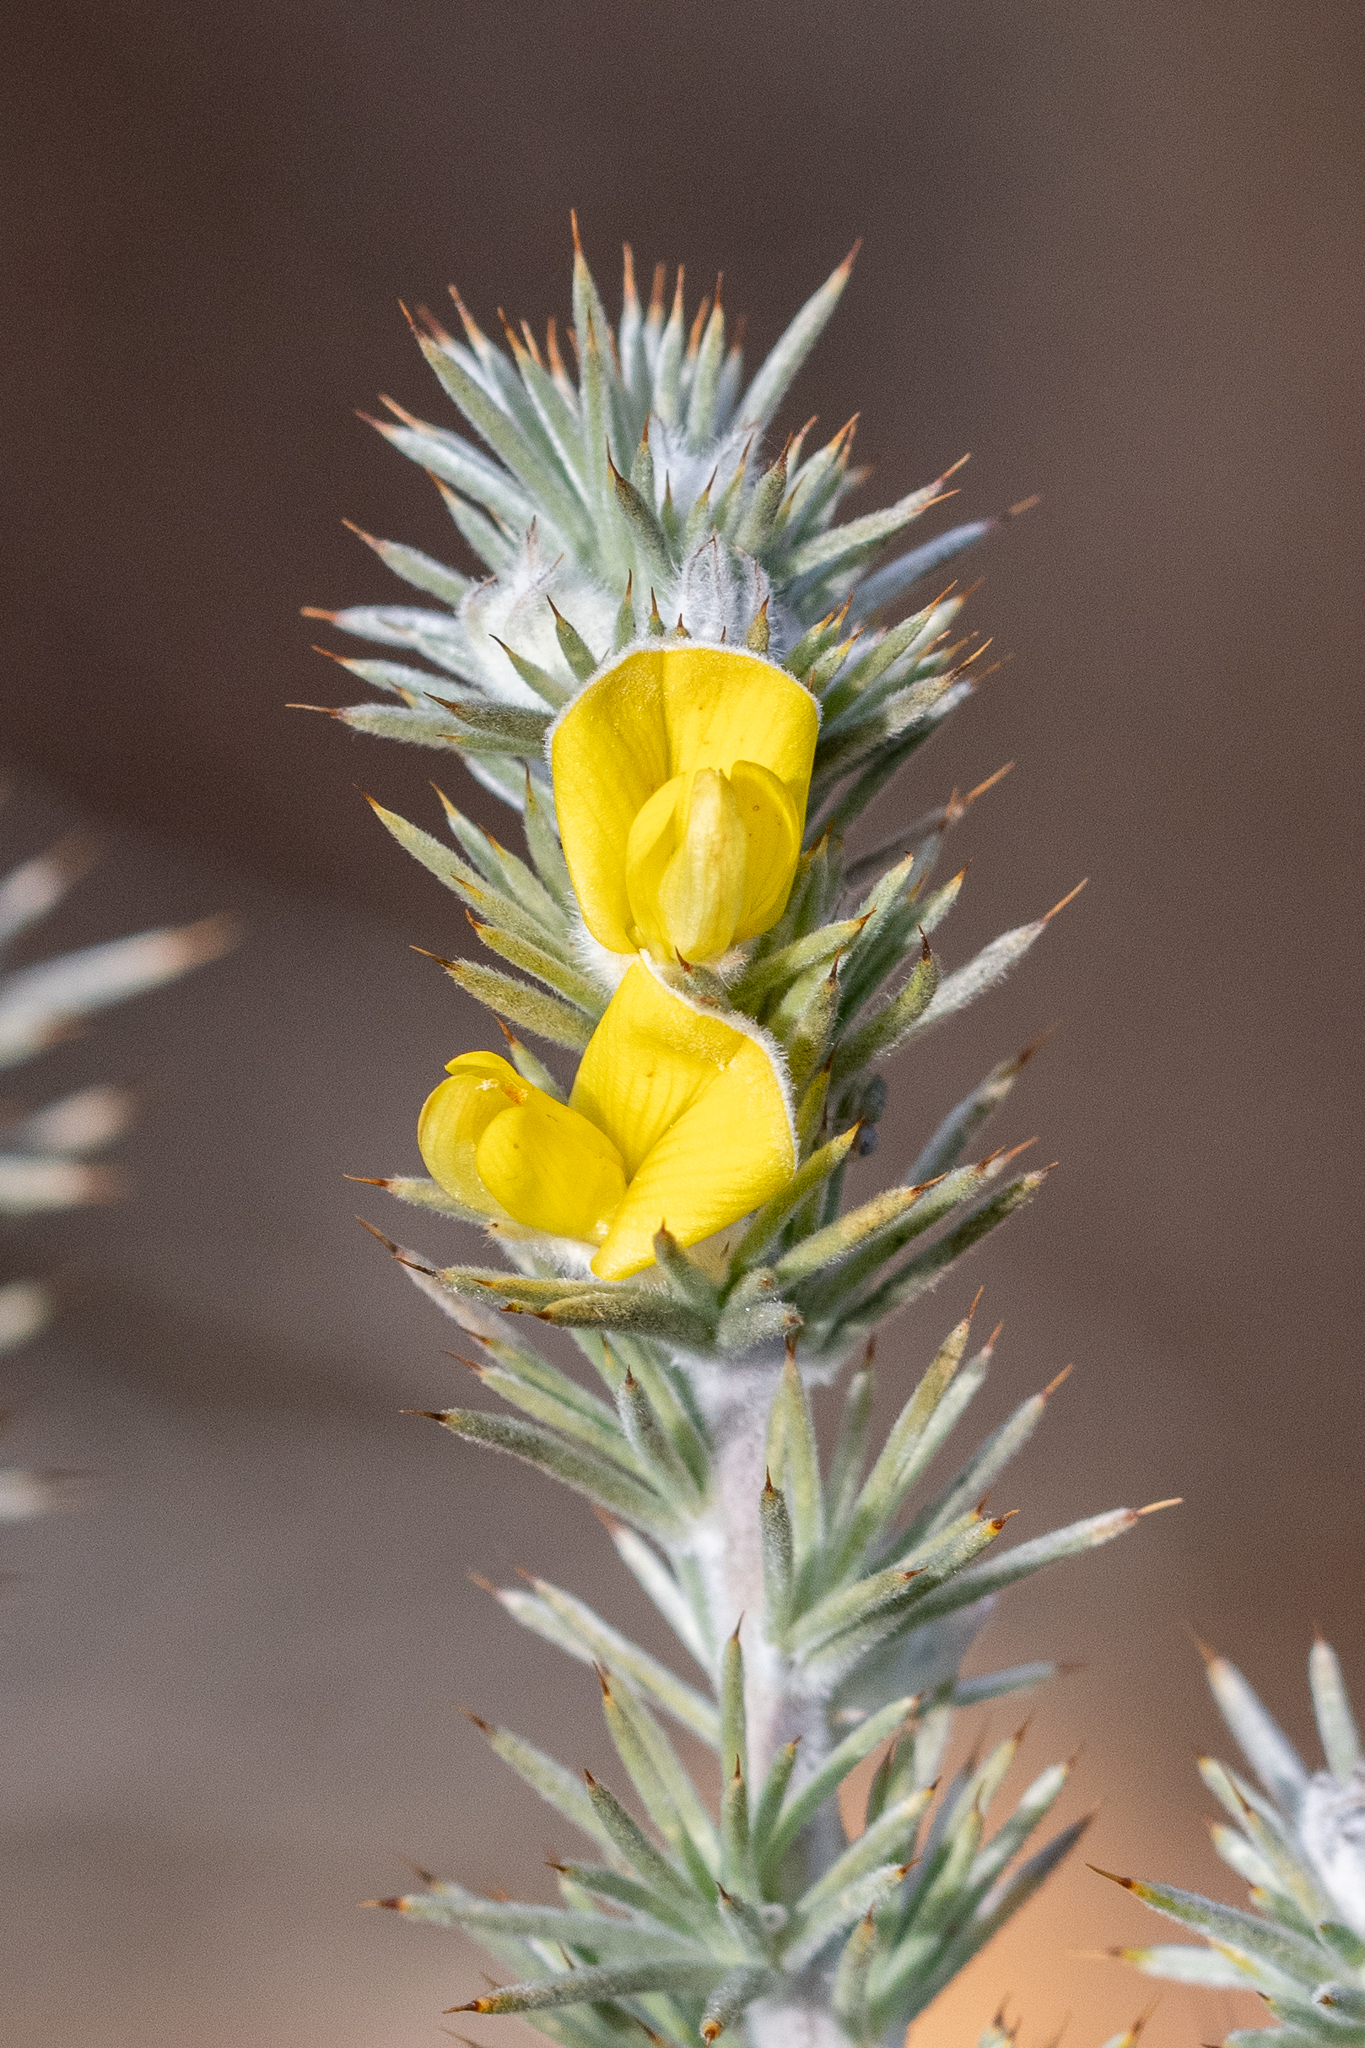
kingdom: Plantae
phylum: Tracheophyta
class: Magnoliopsida
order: Fabales
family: Fabaceae
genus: Aspalathus
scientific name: Aspalathus hystrix
